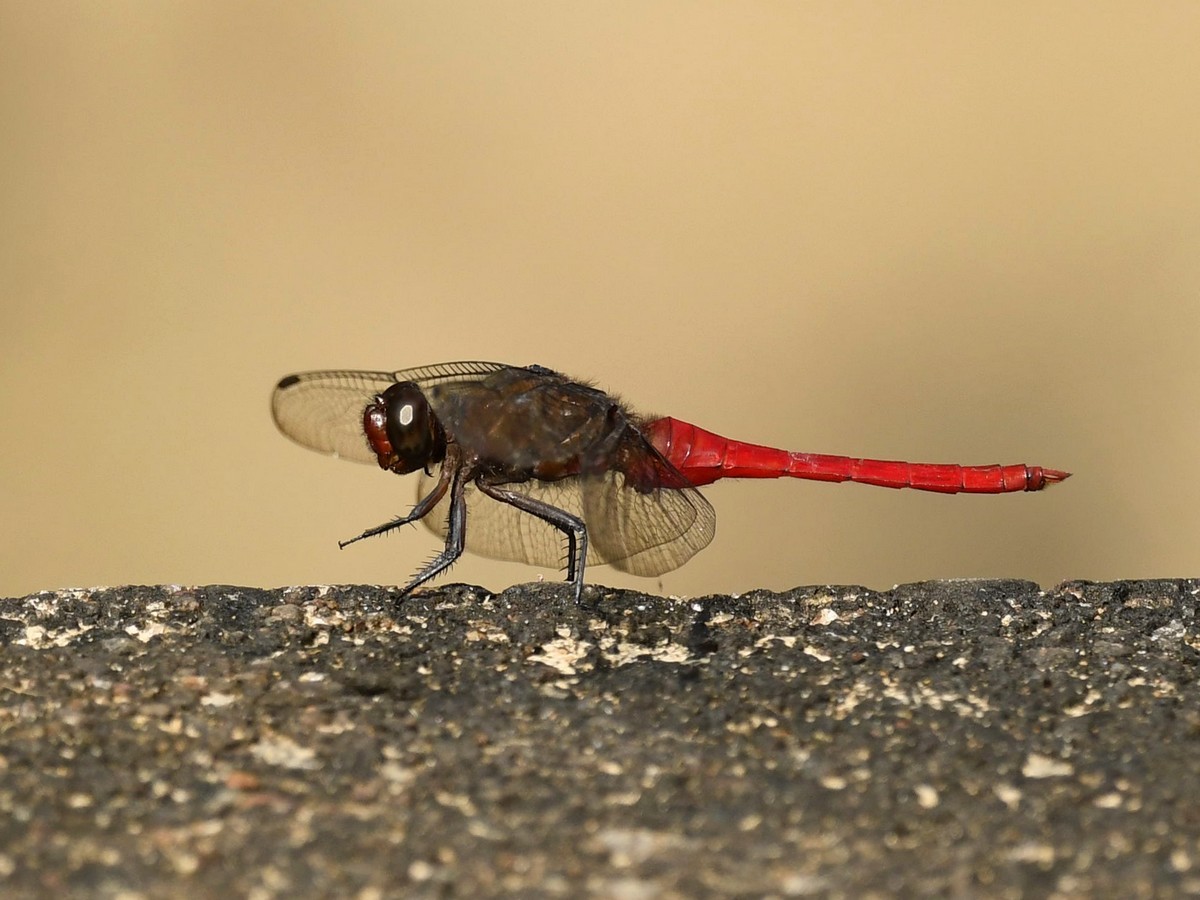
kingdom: Animalia
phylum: Arthropoda
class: Insecta
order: Odonata
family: Libellulidae
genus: Orthetrum
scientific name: Orthetrum chrysis
